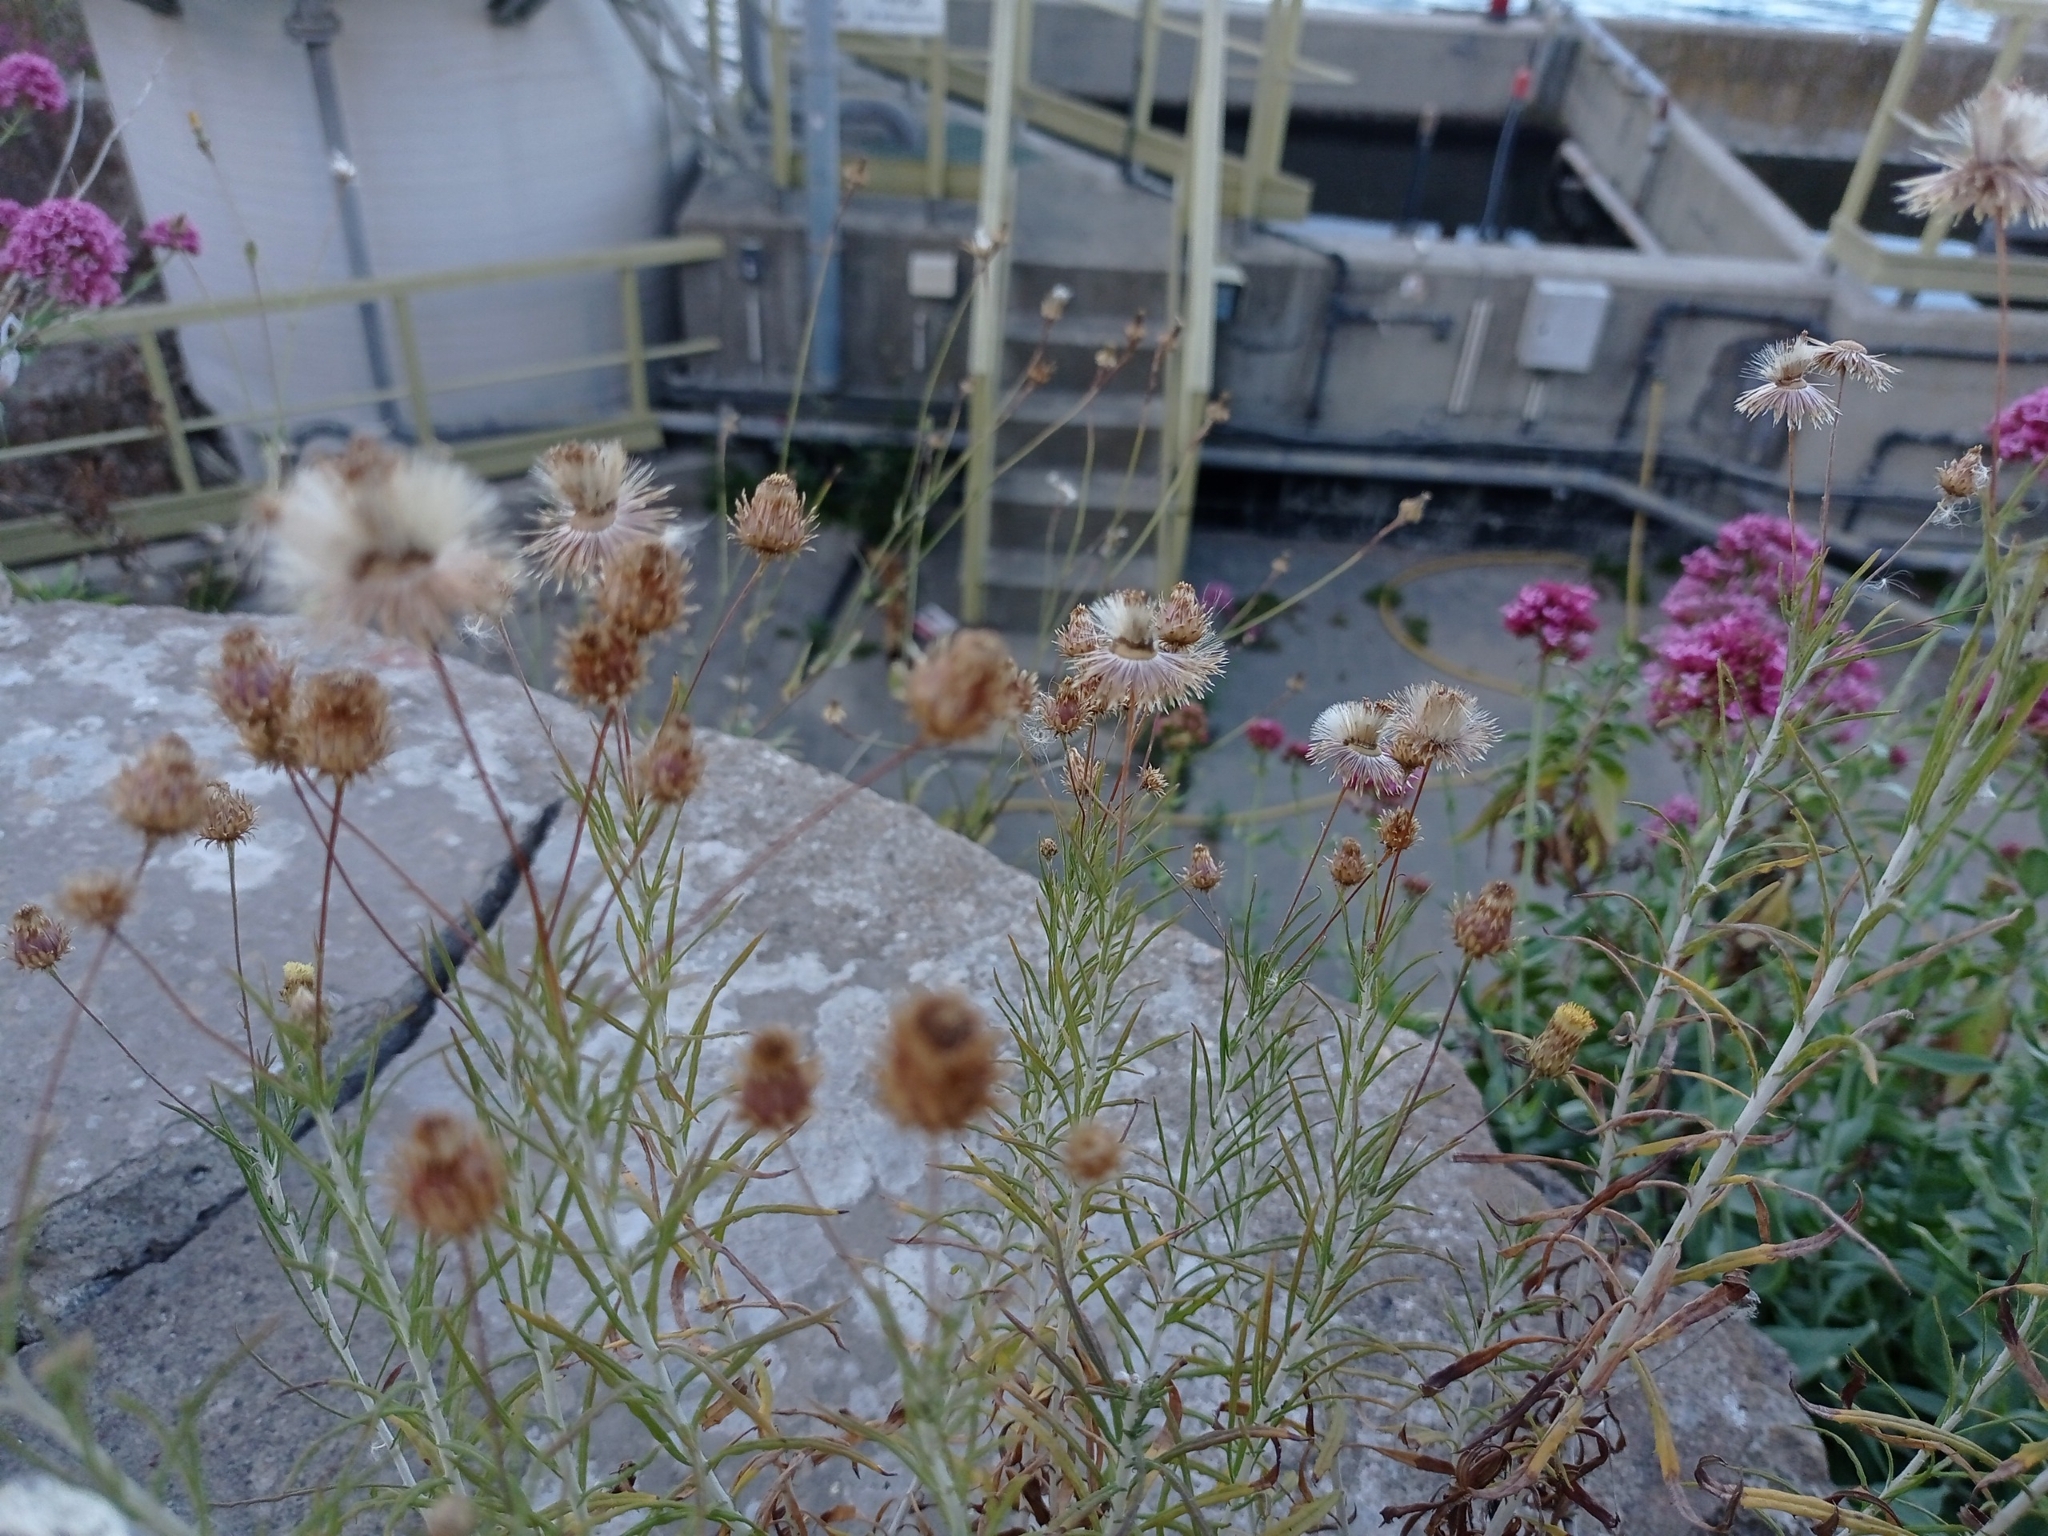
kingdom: Plantae
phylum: Tracheophyta
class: Magnoliopsida
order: Asterales
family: Asteraceae
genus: Phagnalon
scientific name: Phagnalon saxatile
